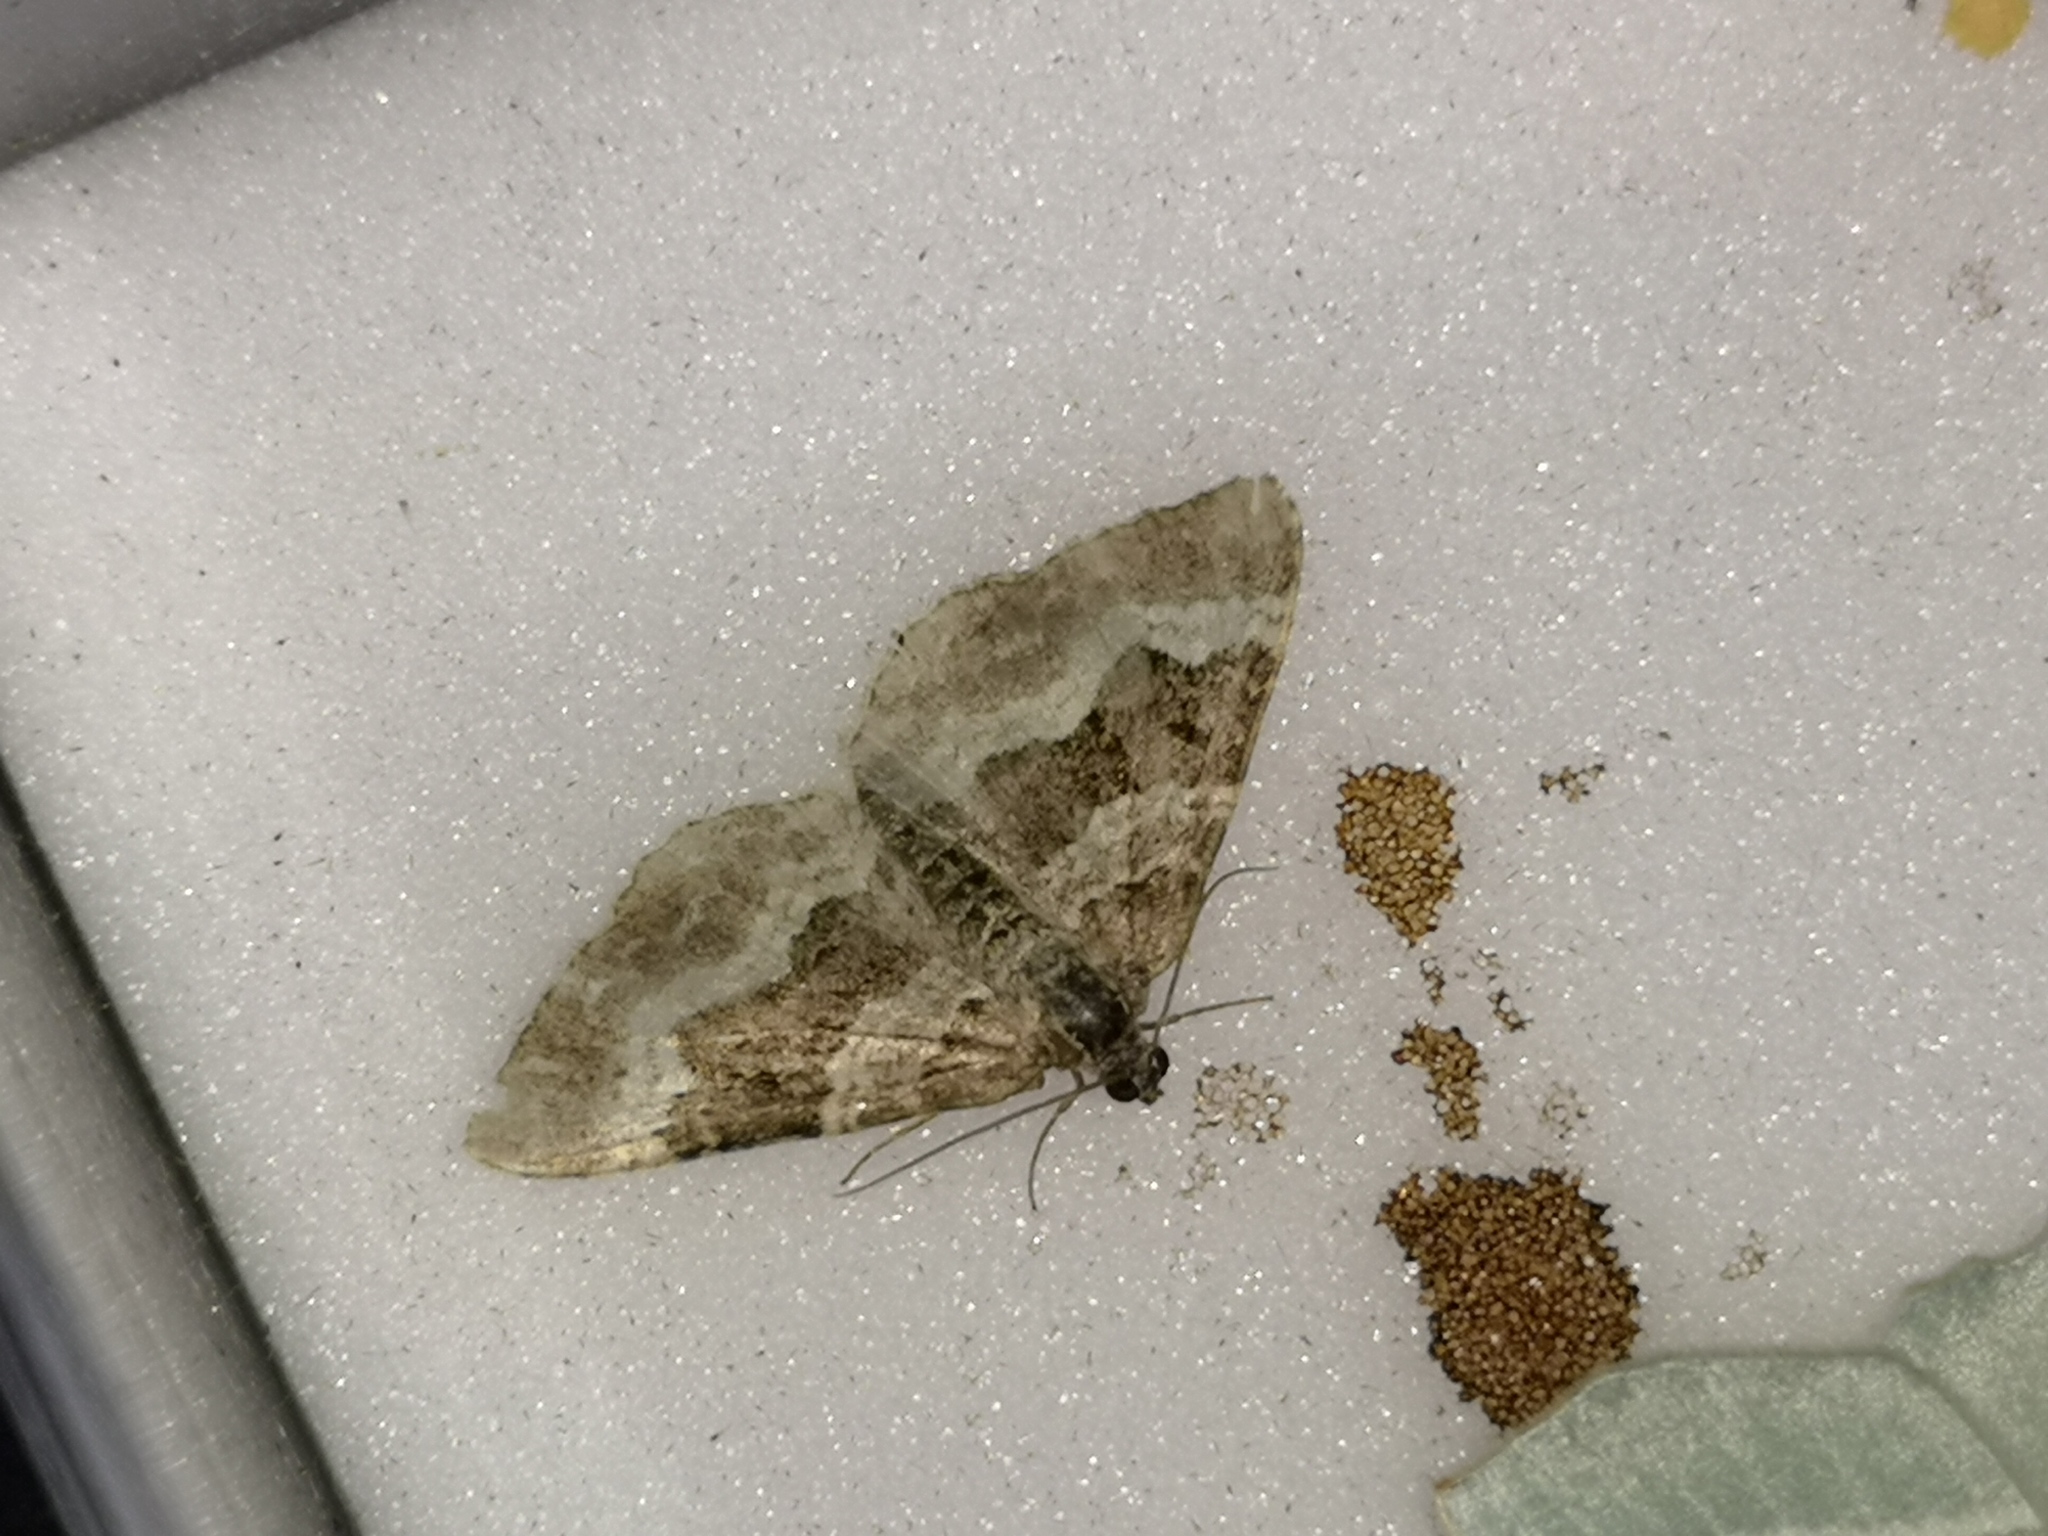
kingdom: Animalia
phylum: Arthropoda
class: Insecta
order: Lepidoptera
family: Geometridae
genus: Epirrhoe
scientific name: Epirrhoe alternata
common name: Common carpet
